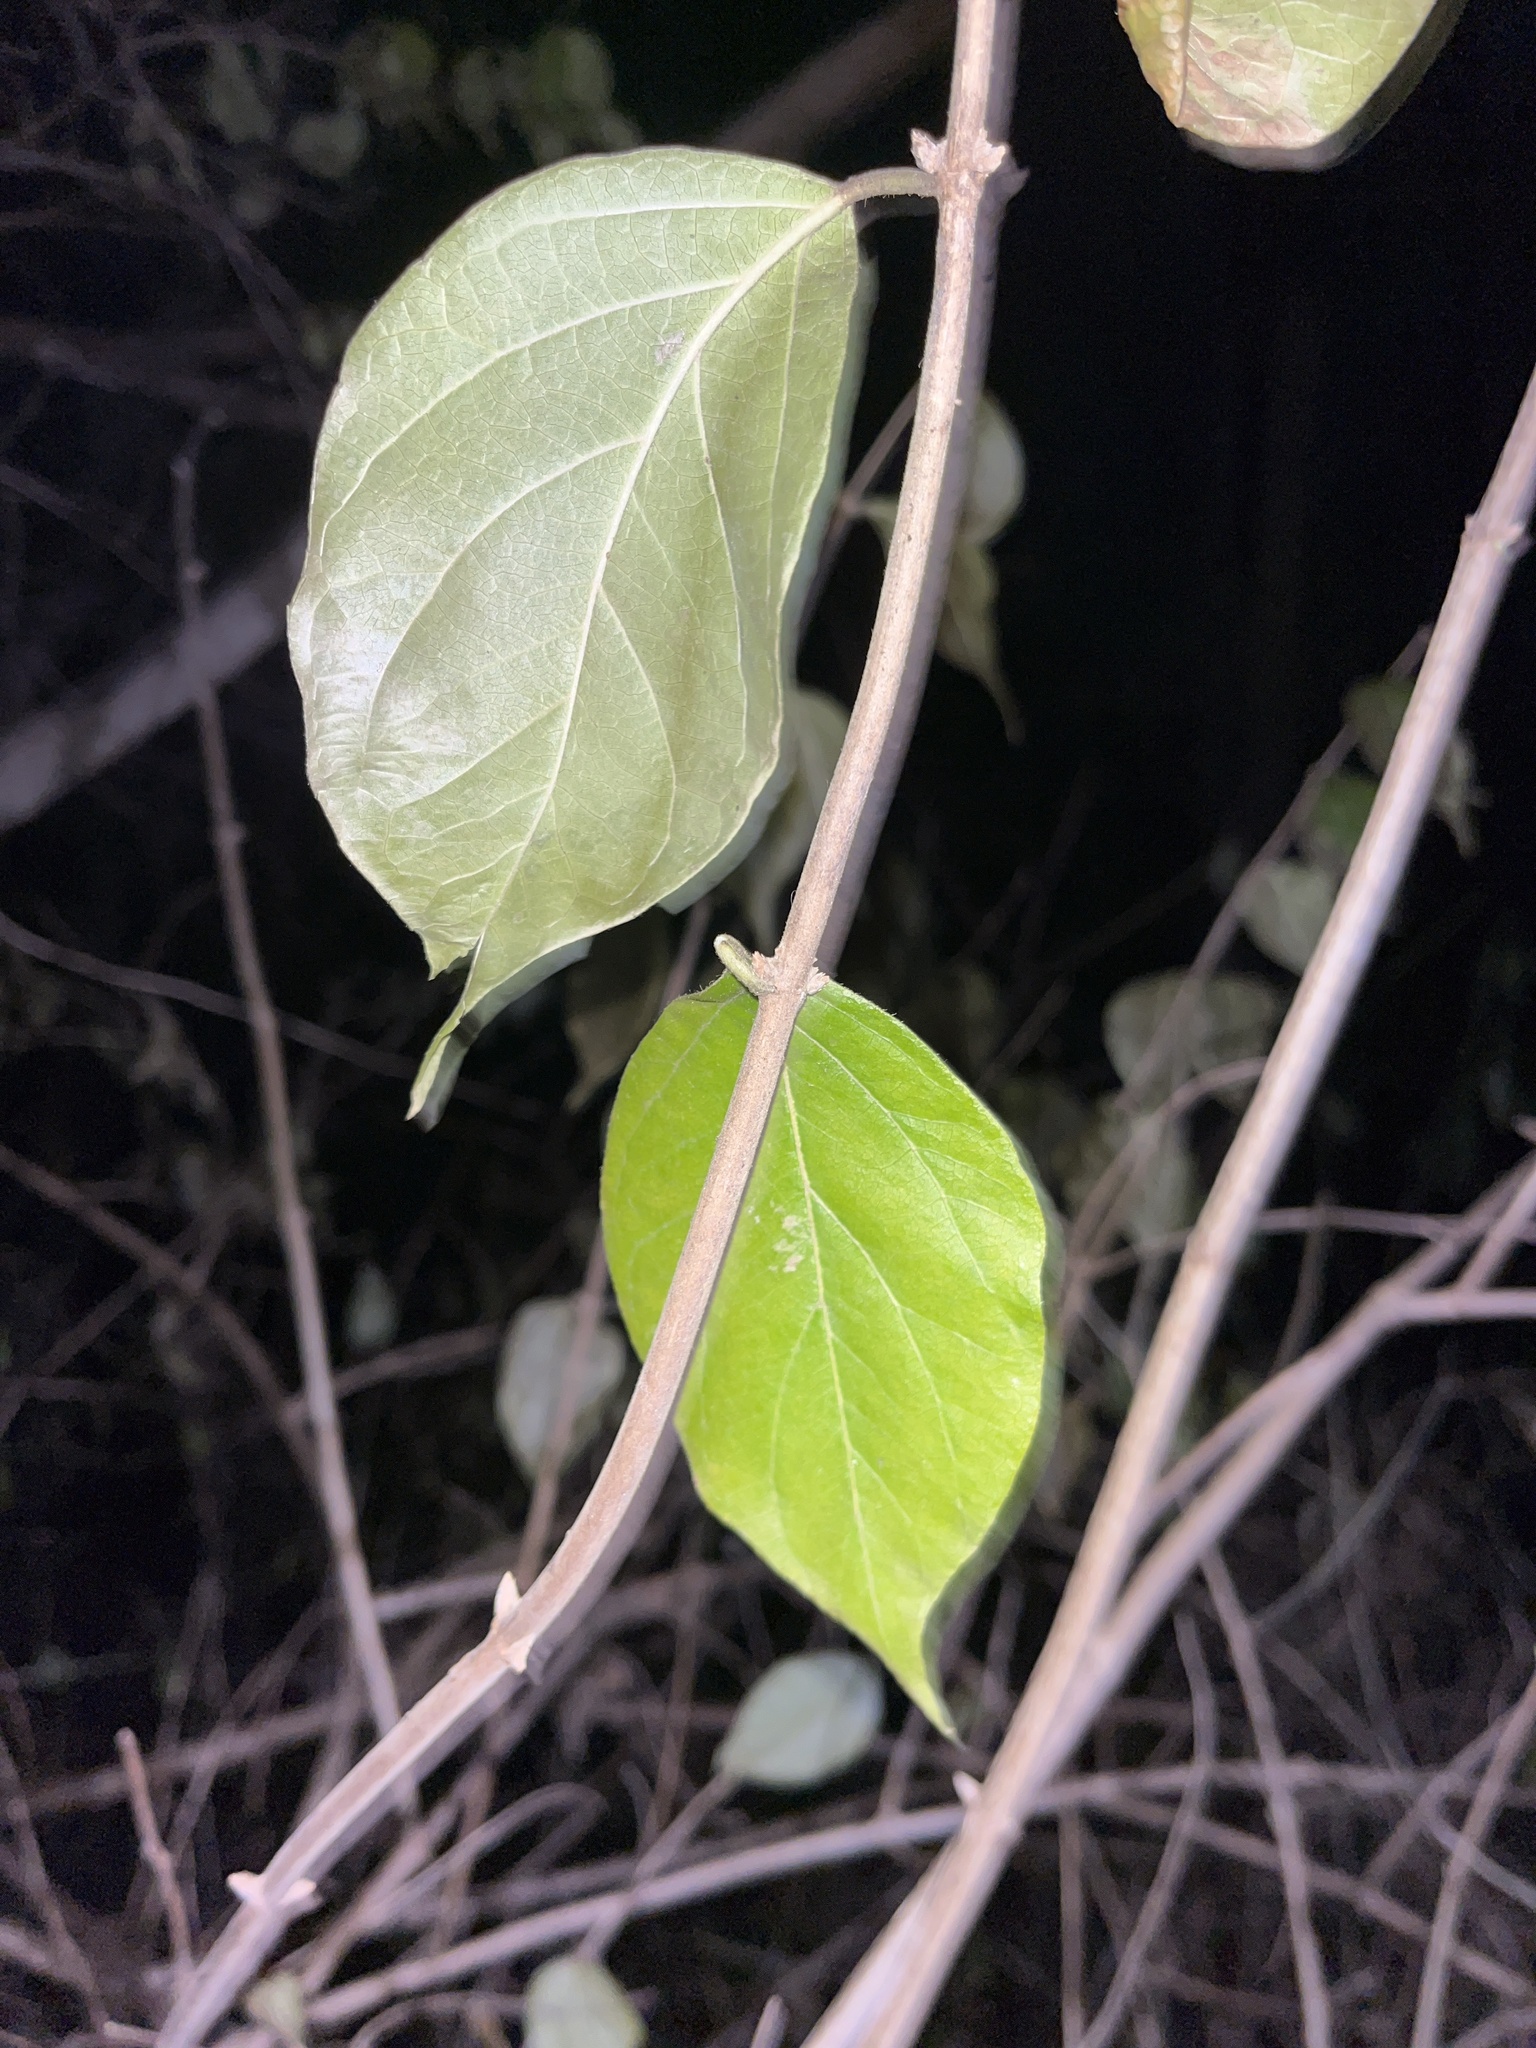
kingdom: Plantae
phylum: Tracheophyta
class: Magnoliopsida
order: Dipsacales
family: Caprifoliaceae
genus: Lonicera
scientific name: Lonicera maackii
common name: Amur honeysuckle
